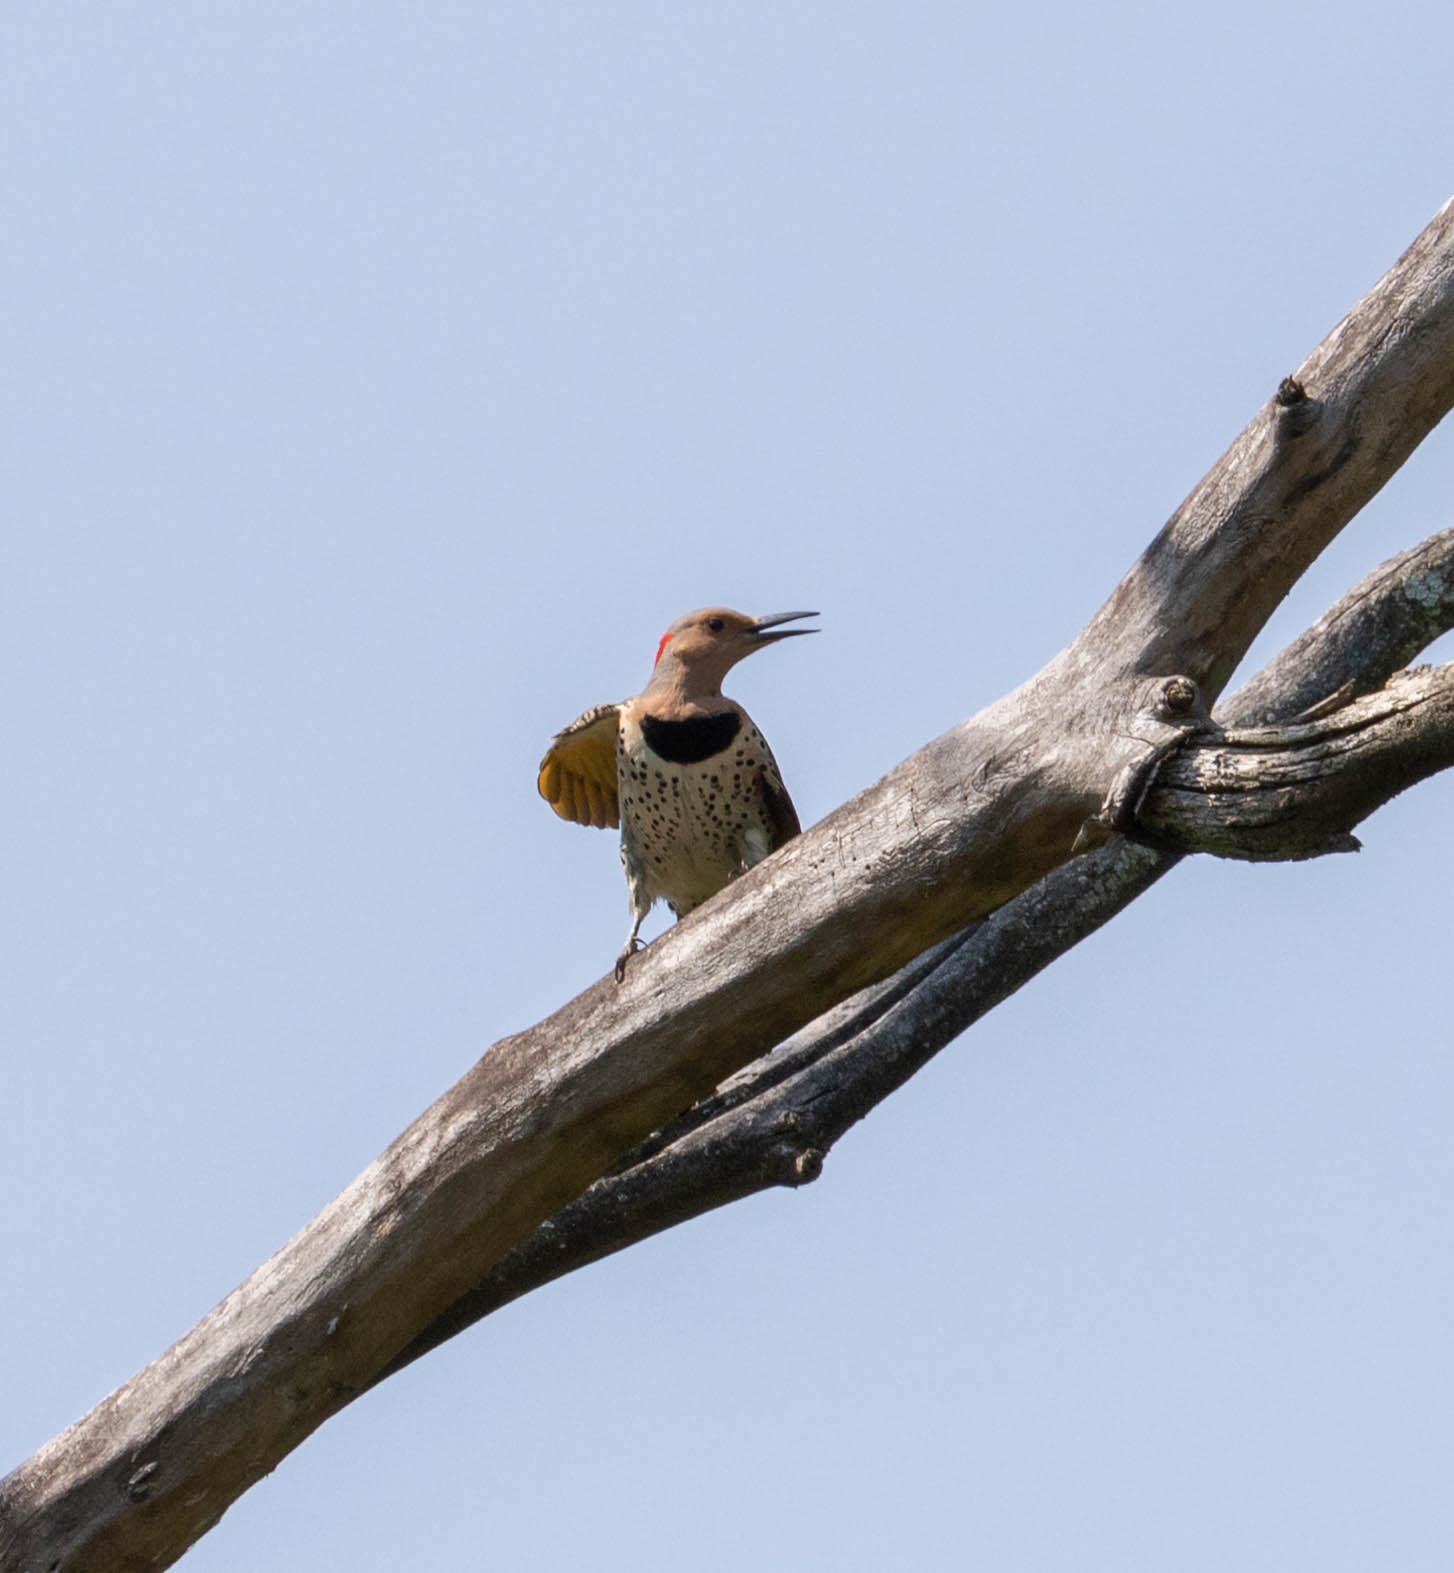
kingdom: Animalia
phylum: Chordata
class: Aves
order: Piciformes
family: Picidae
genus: Colaptes
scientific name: Colaptes auratus
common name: Northern flicker
